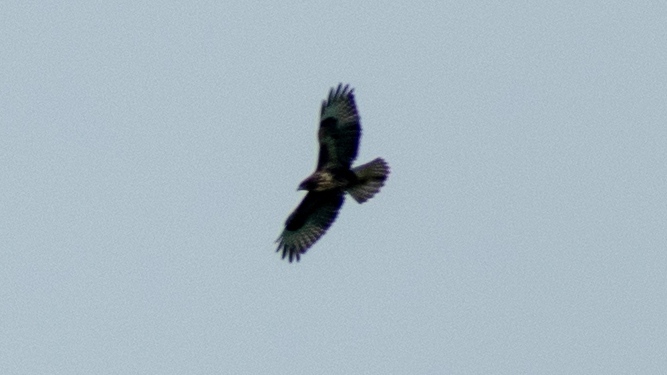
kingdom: Animalia
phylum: Chordata
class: Aves
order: Accipitriformes
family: Accipitridae
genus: Buteo
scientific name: Buteo buteo
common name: Common buzzard
